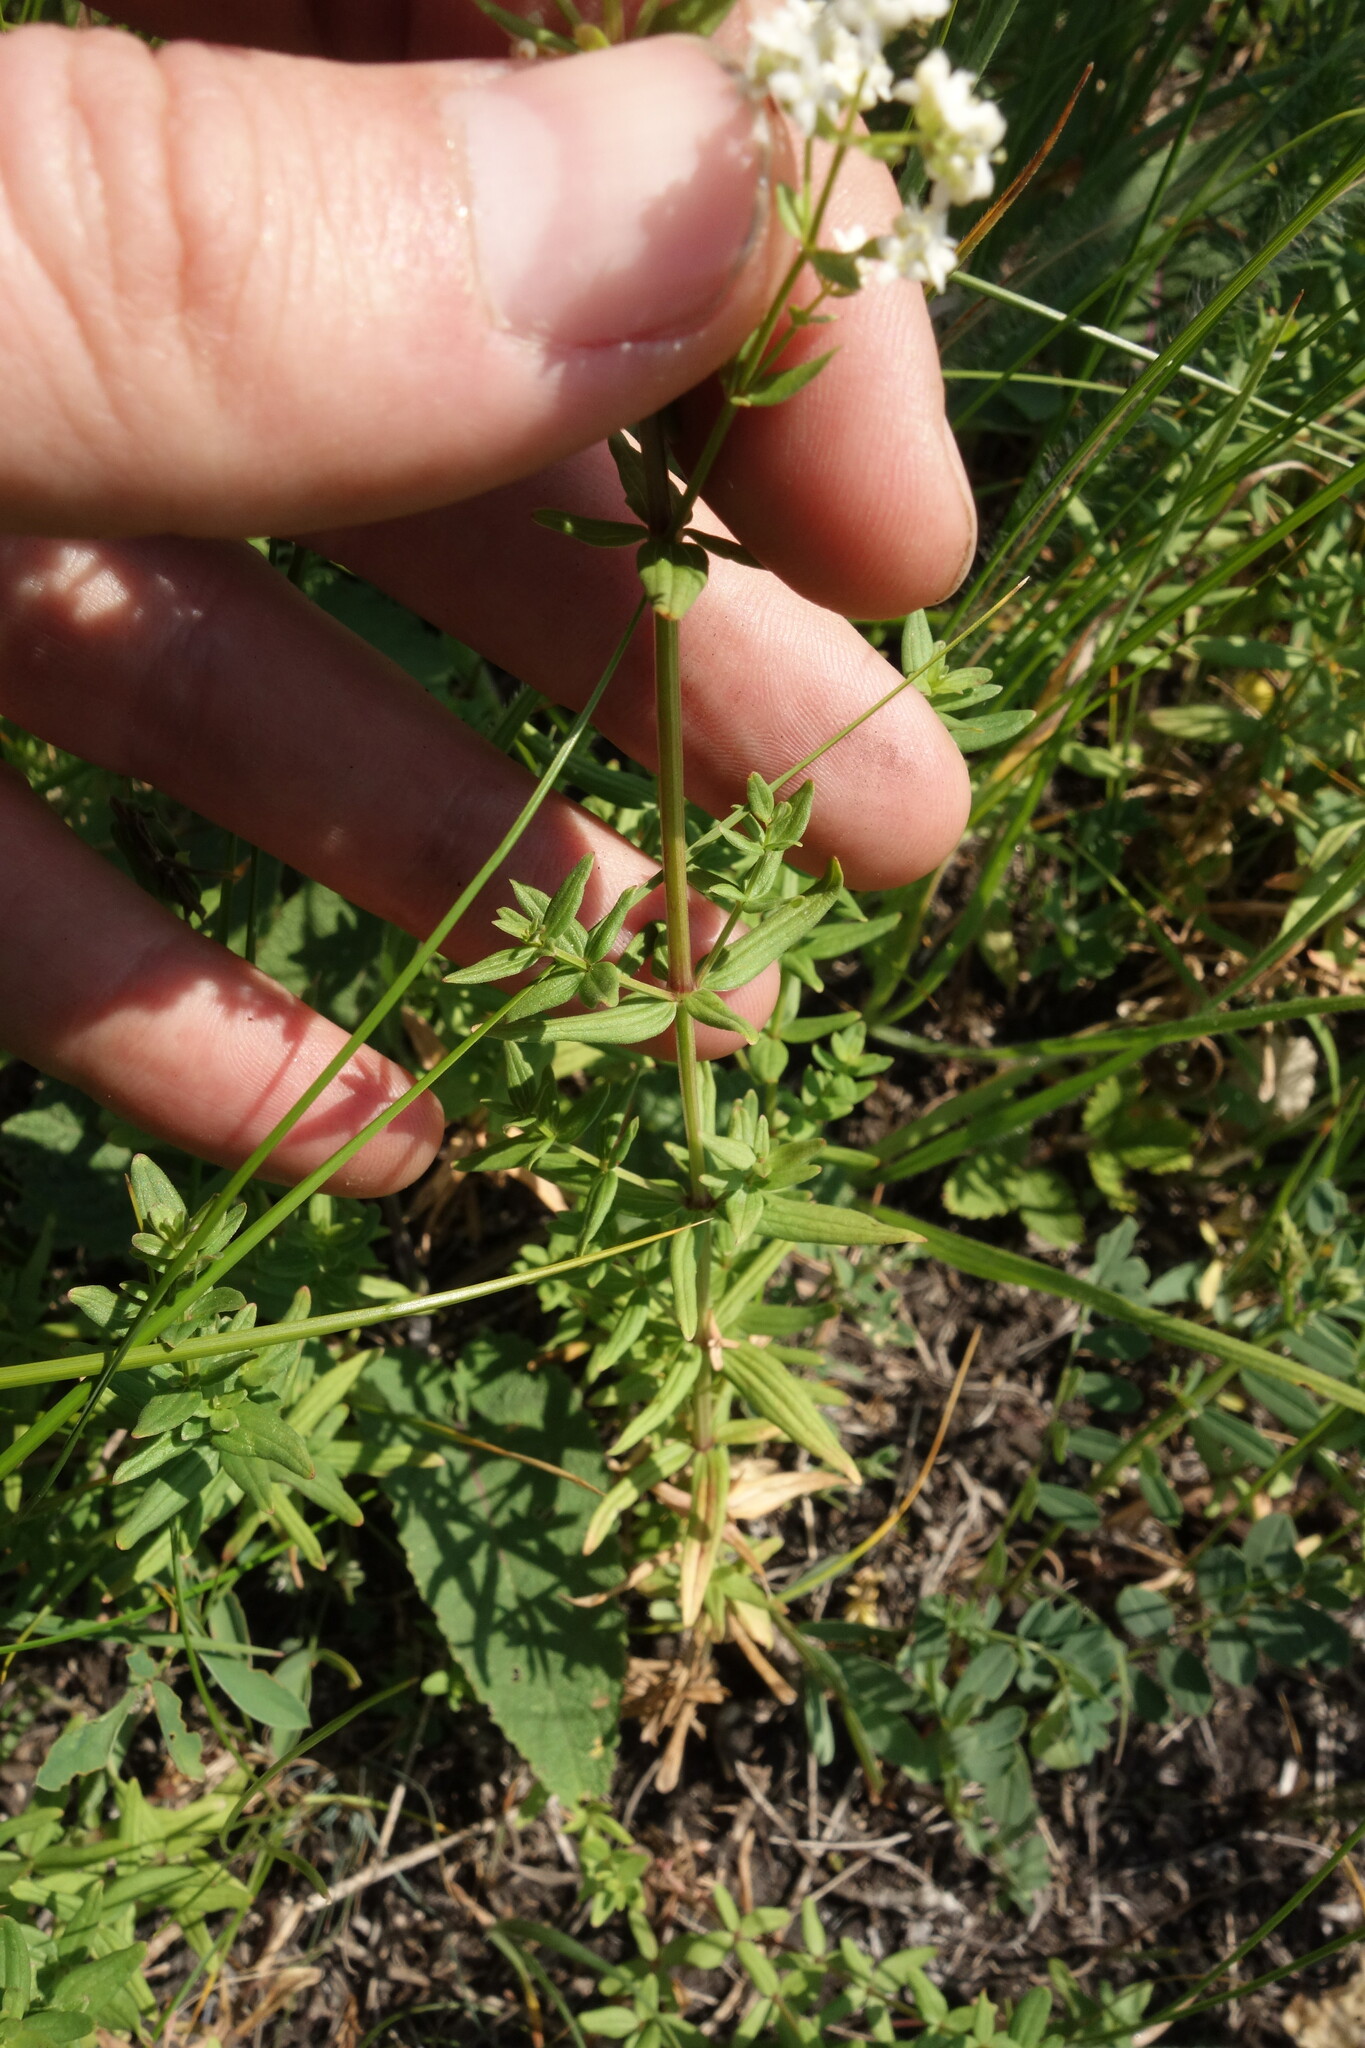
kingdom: Plantae
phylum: Tracheophyta
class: Magnoliopsida
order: Gentianales
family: Rubiaceae
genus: Galium
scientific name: Galium boreale
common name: Northern bedstraw
